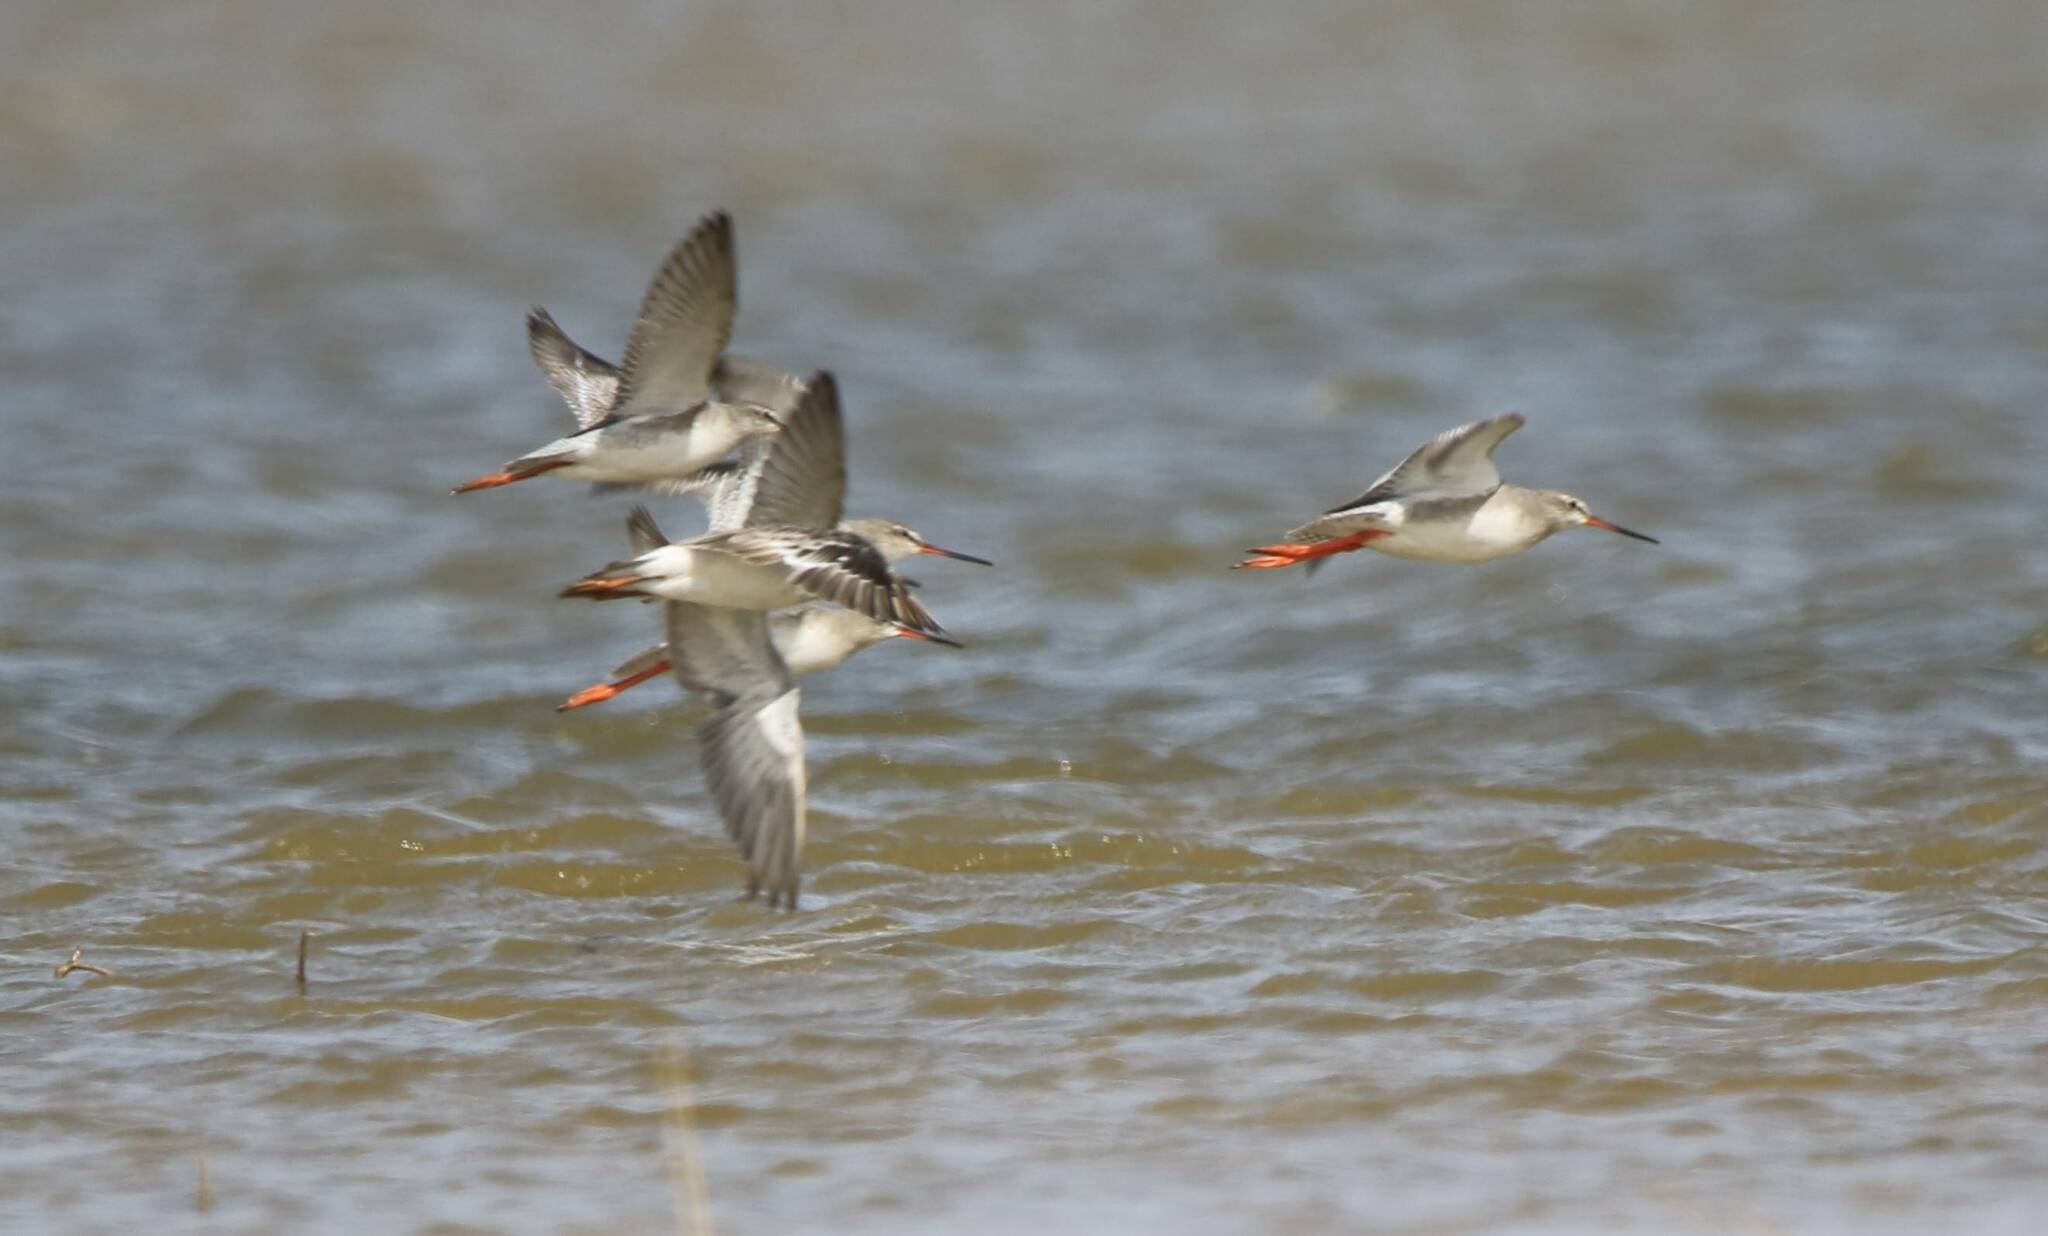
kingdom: Animalia
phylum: Chordata
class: Aves
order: Charadriiformes
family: Scolopacidae
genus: Tringa
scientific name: Tringa erythropus
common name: Spotted redshank
